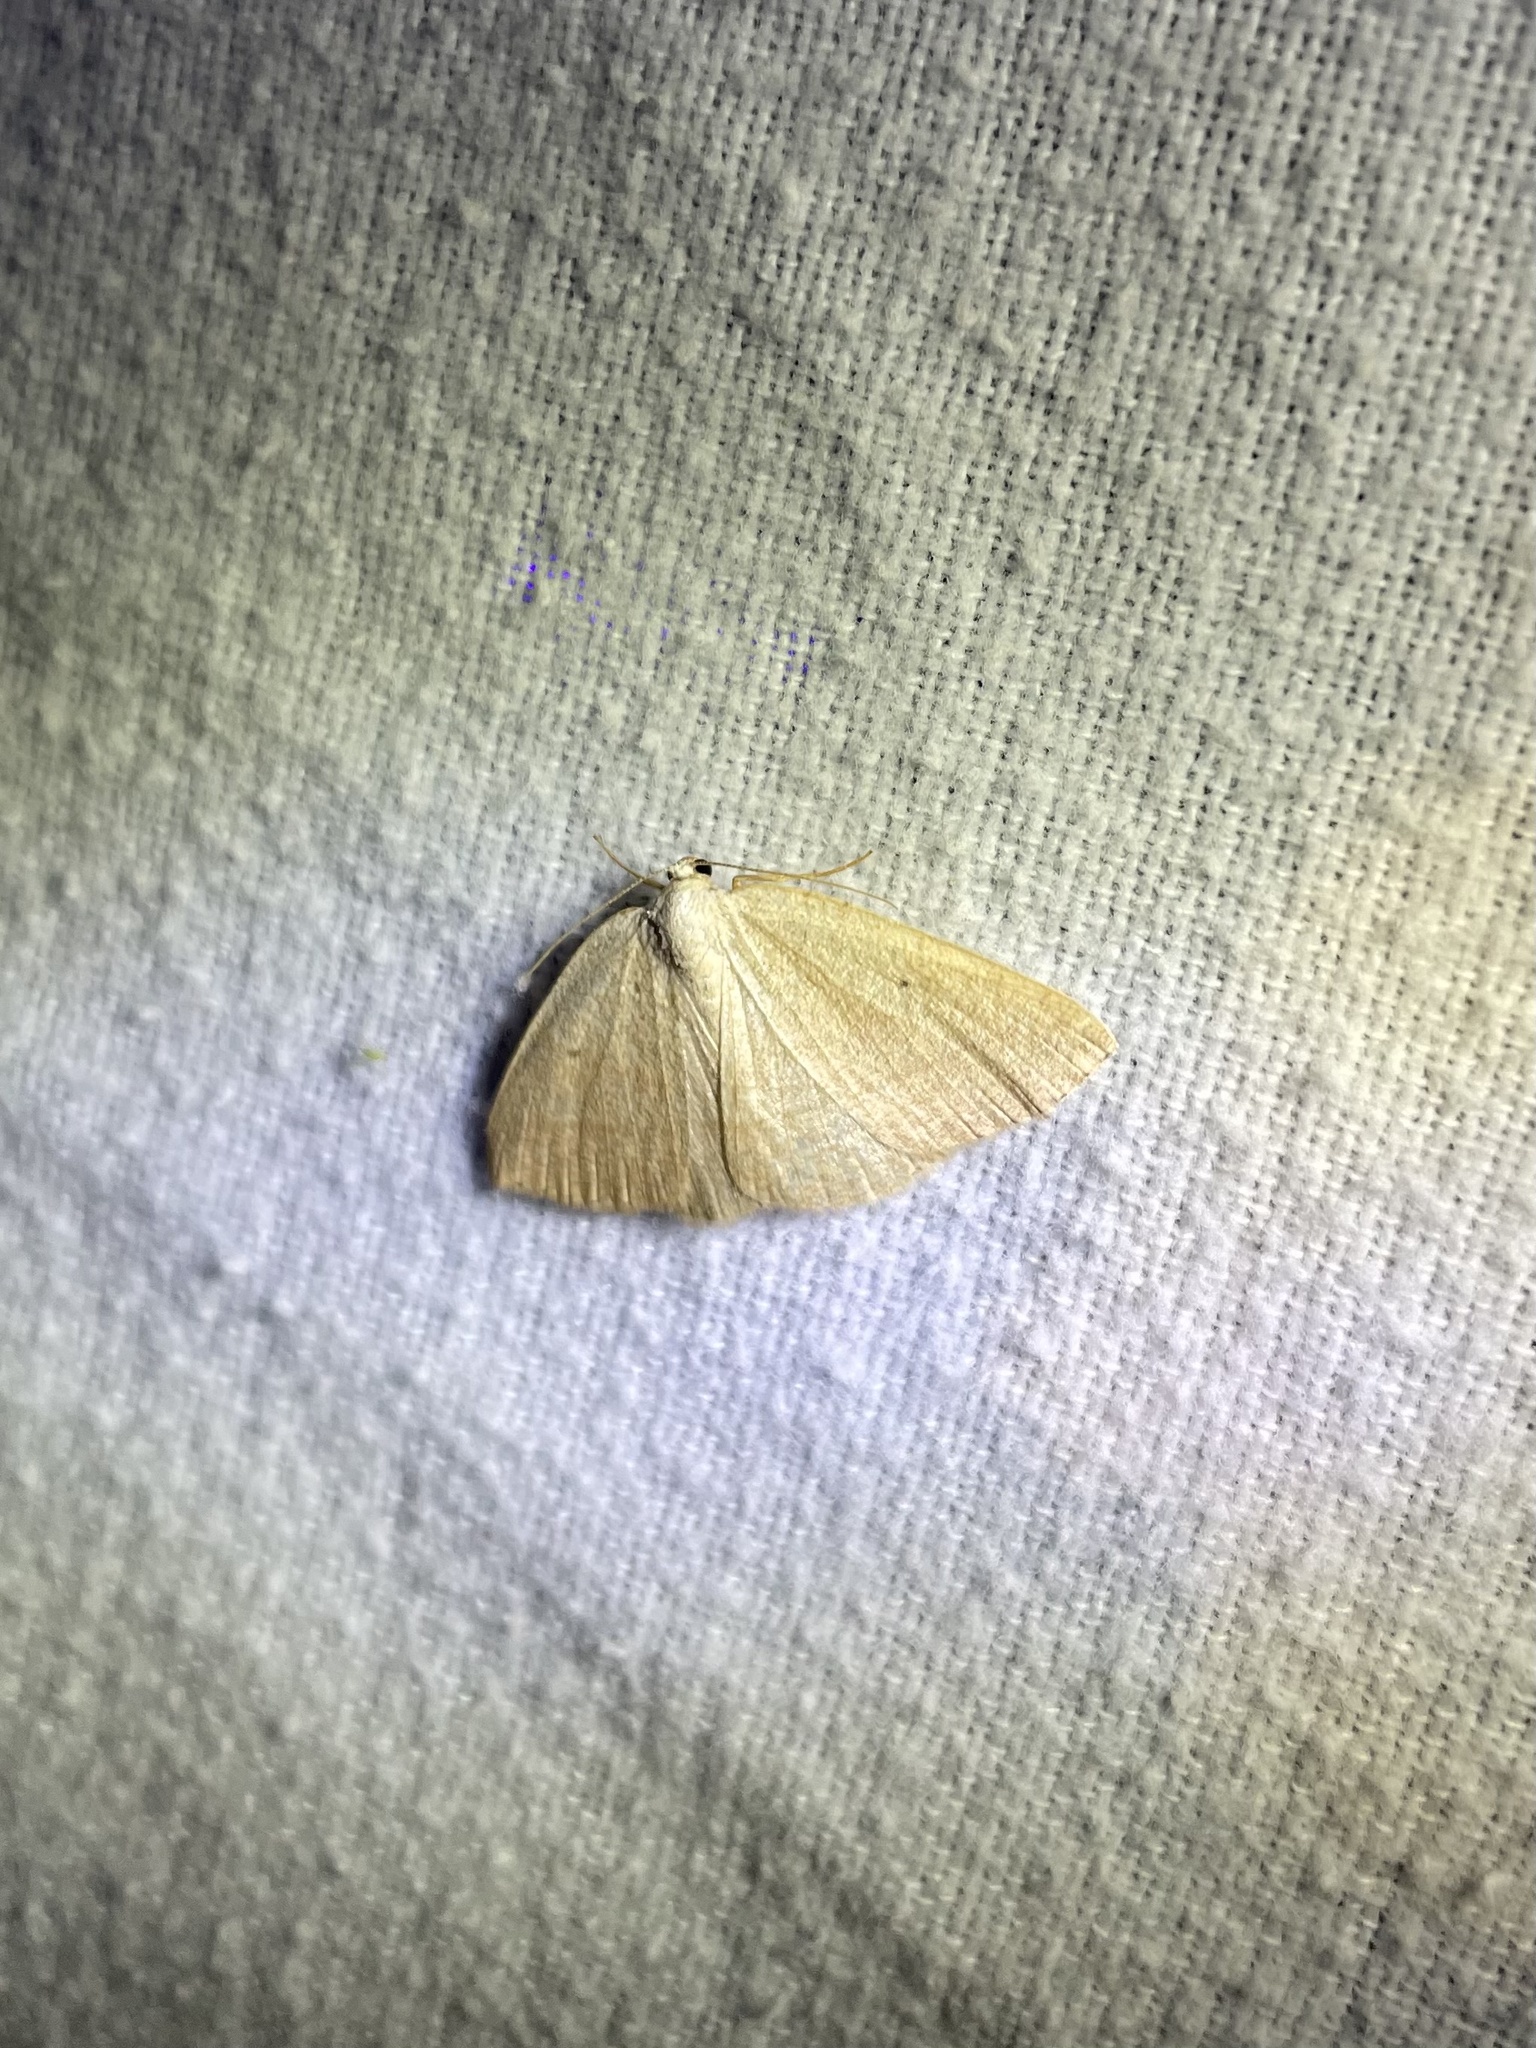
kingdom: Animalia
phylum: Arthropoda
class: Insecta
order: Lepidoptera
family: Geometridae
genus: Eudrepanulatrix
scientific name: Eudrepanulatrix rectifascia
